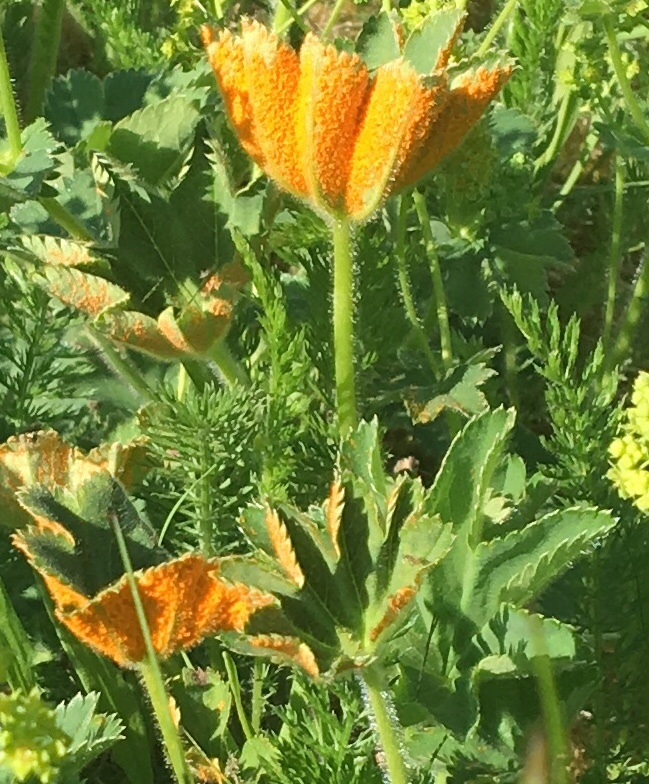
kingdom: Fungi
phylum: Basidiomycota
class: Pucciniomycetes
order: Pucciniales
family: Phragmidiaceae
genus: Trachyspora
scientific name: Trachyspora alchemillae
